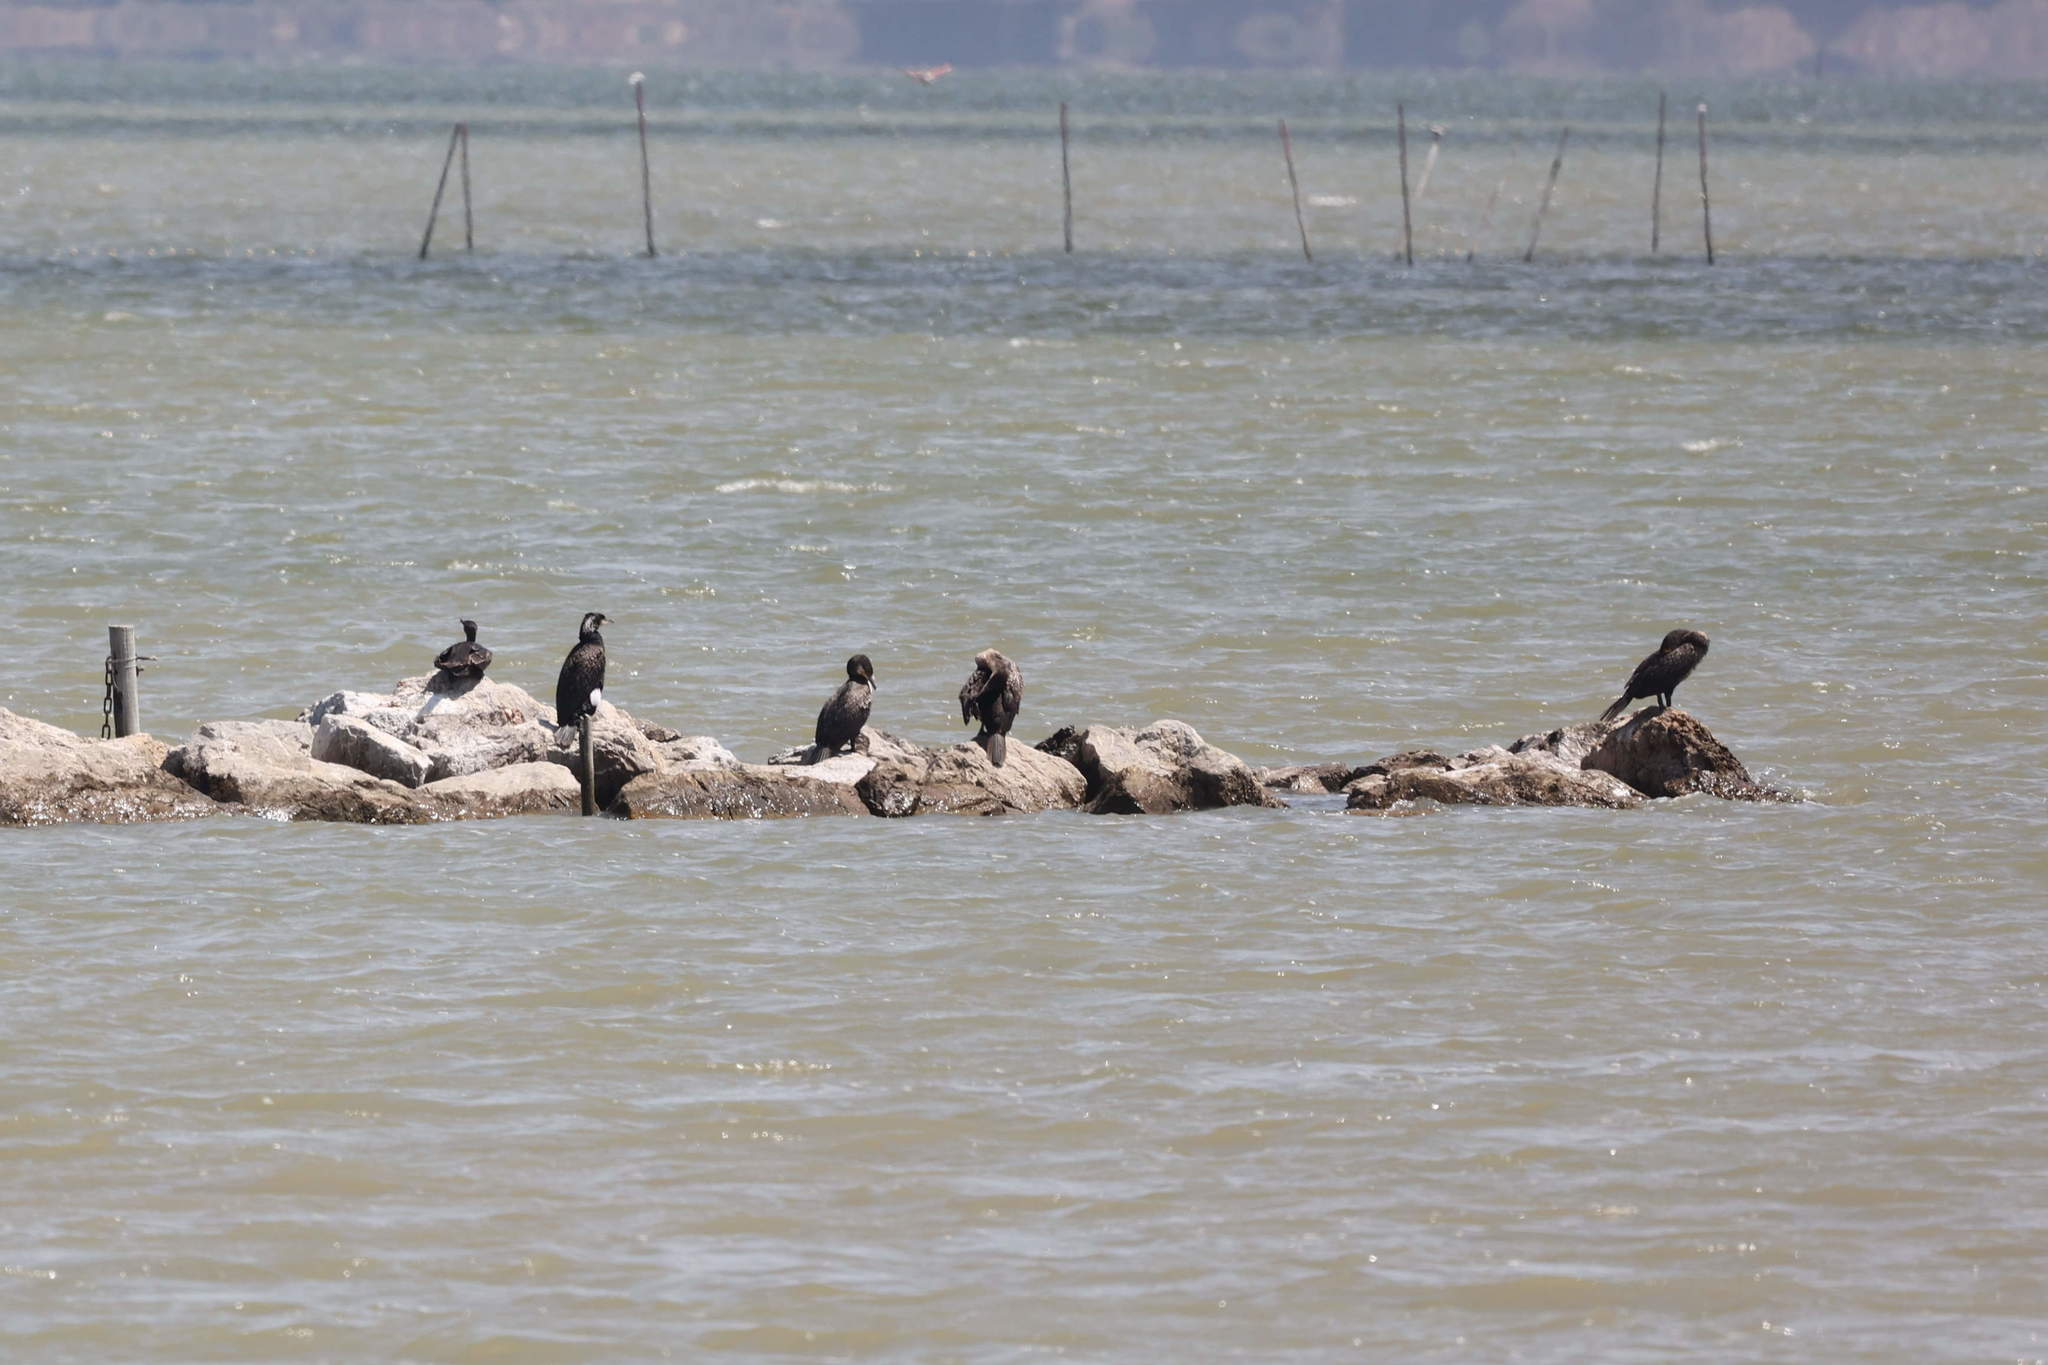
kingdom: Animalia
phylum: Chordata
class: Aves
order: Suliformes
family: Phalacrocoracidae
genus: Phalacrocorax
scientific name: Phalacrocorax carbo
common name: Great cormorant
